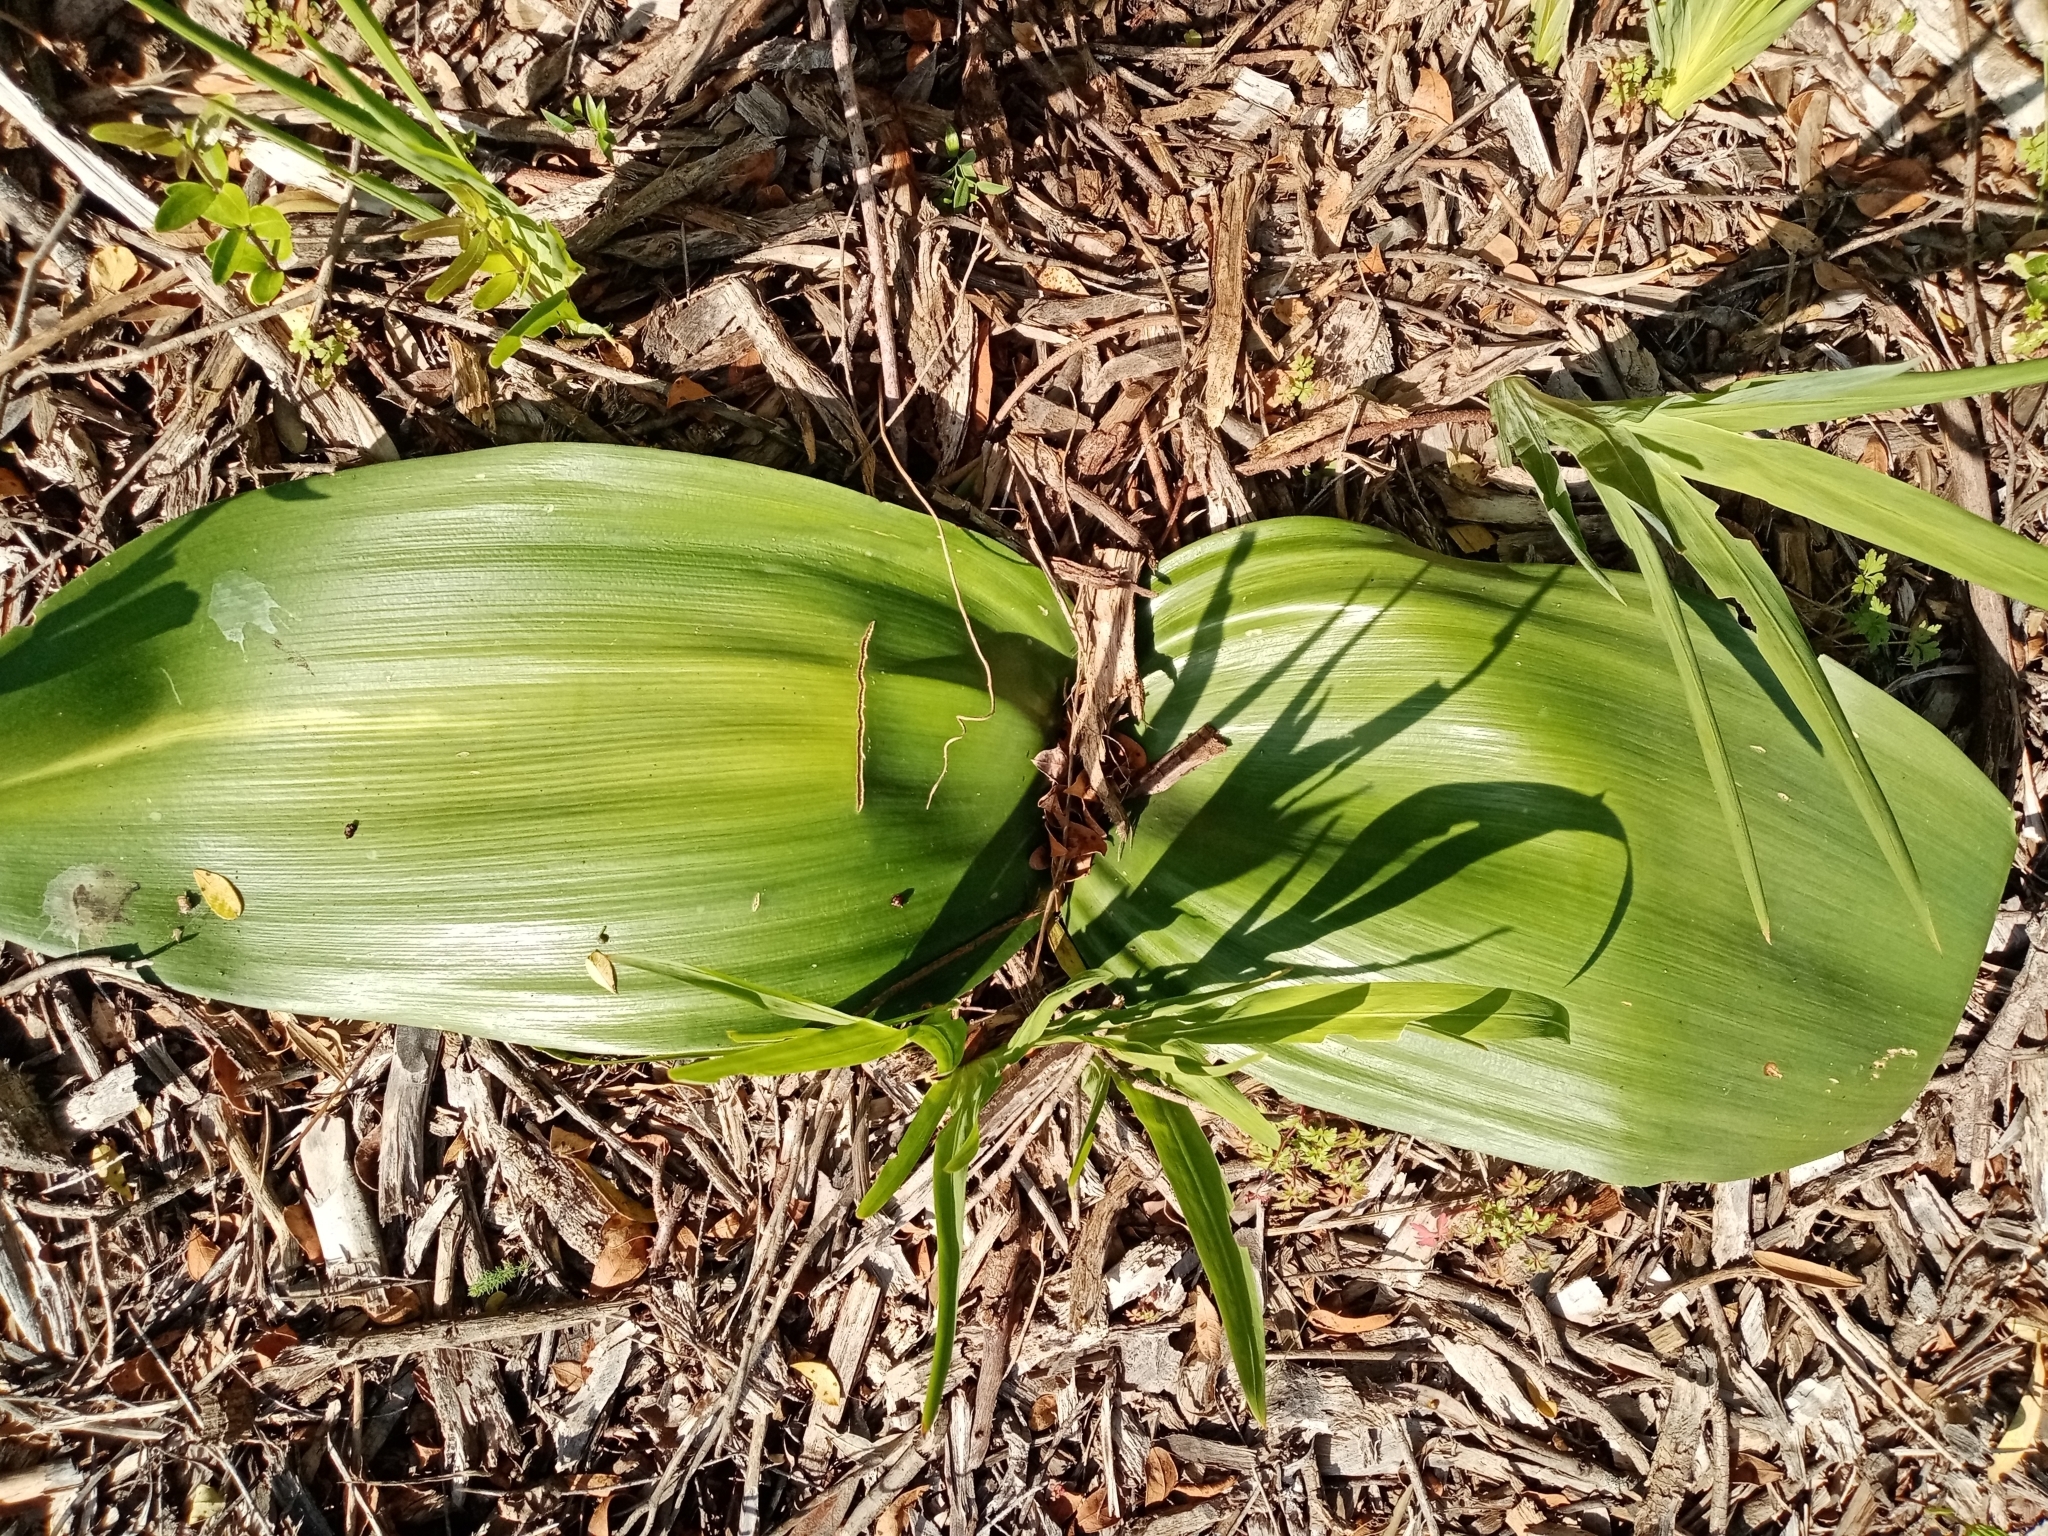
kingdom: Plantae
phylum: Tracheophyta
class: Liliopsida
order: Asparagales
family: Amaryllidaceae
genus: Haemanthus
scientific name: Haemanthus coccineus
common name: Cape-tulip
